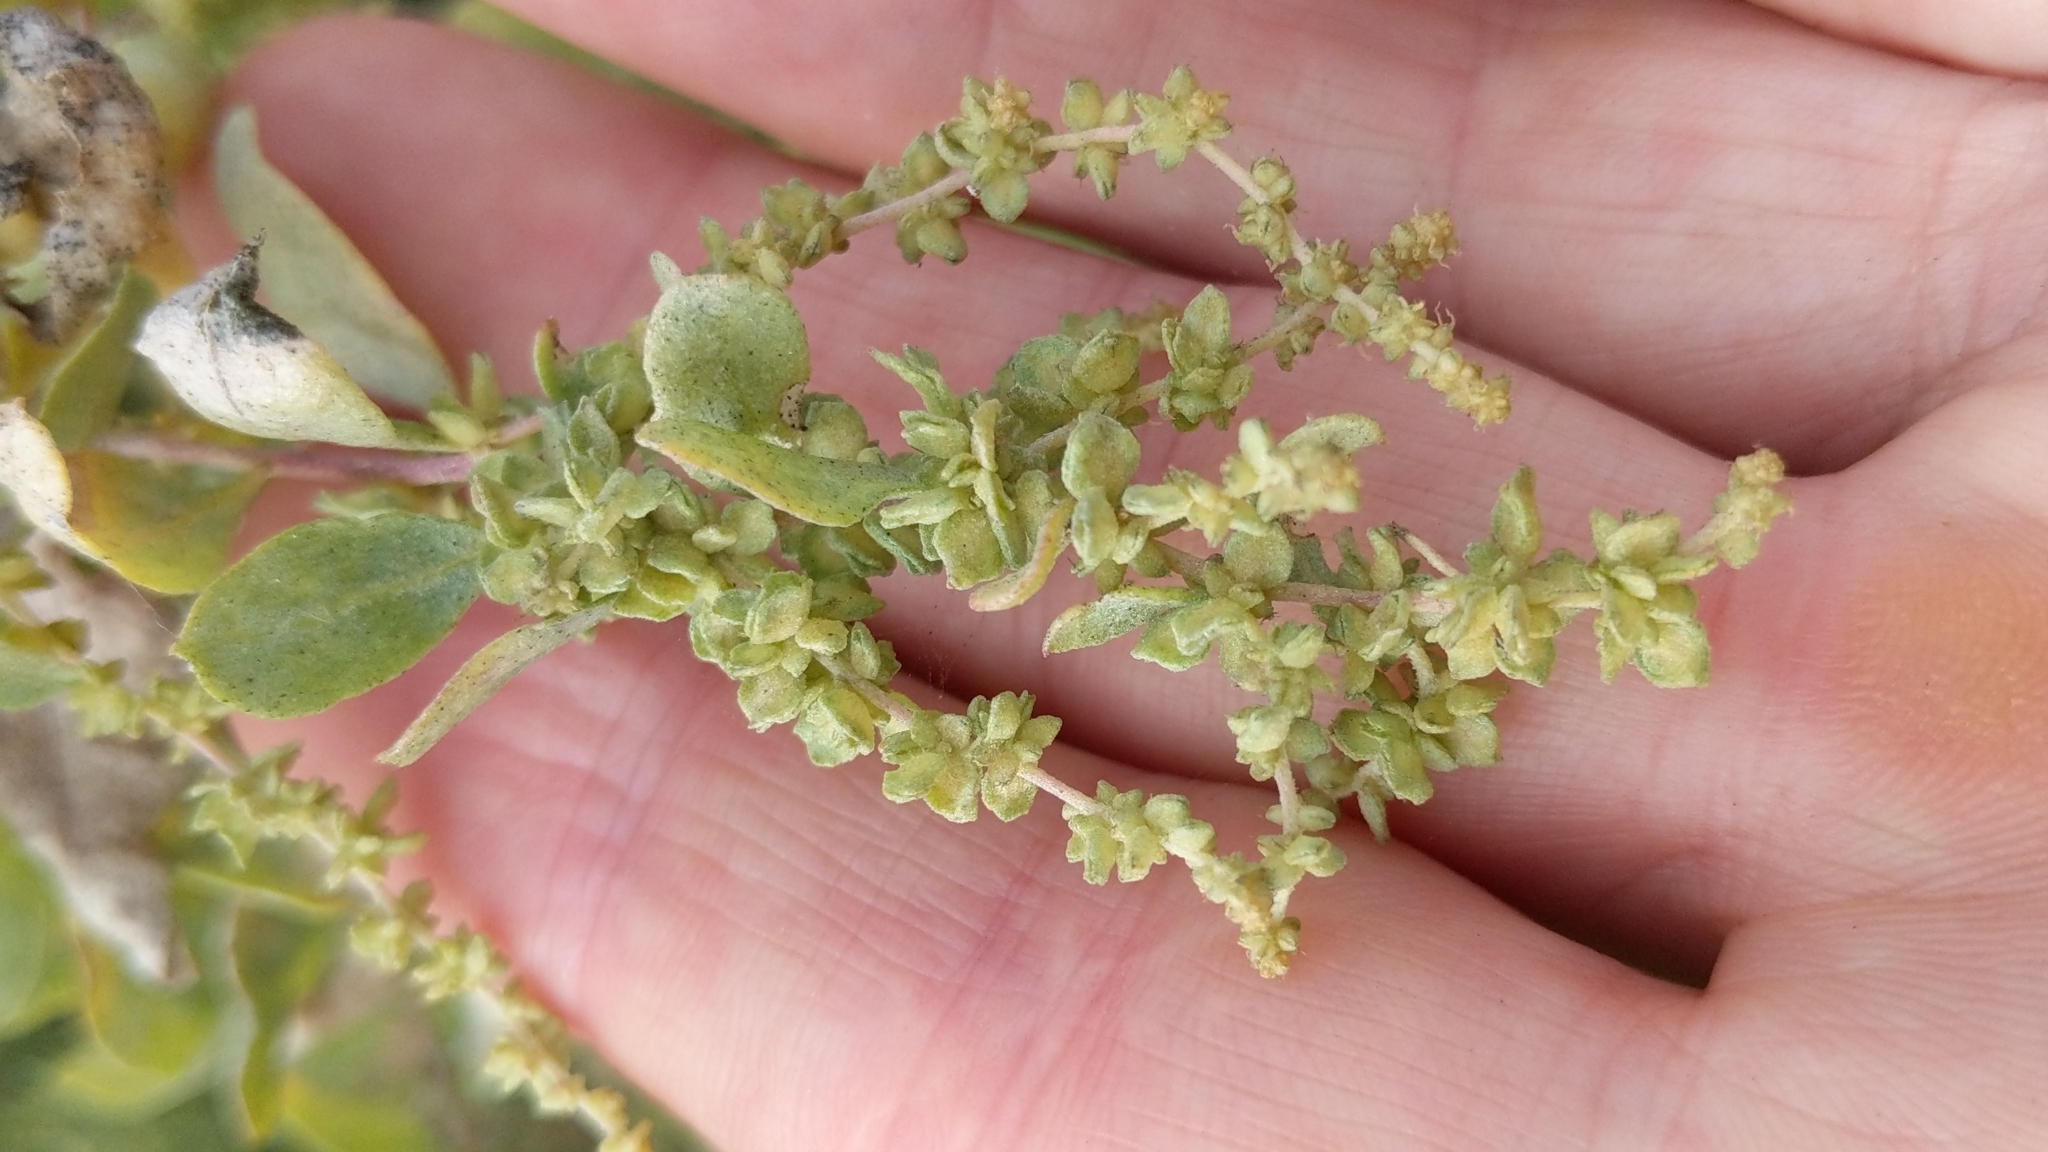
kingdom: Plantae
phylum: Tracheophyta
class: Magnoliopsida
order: Caryophyllales
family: Amaranthaceae
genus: Atriplex
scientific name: Atriplex lentiformis
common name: Big saltbush
